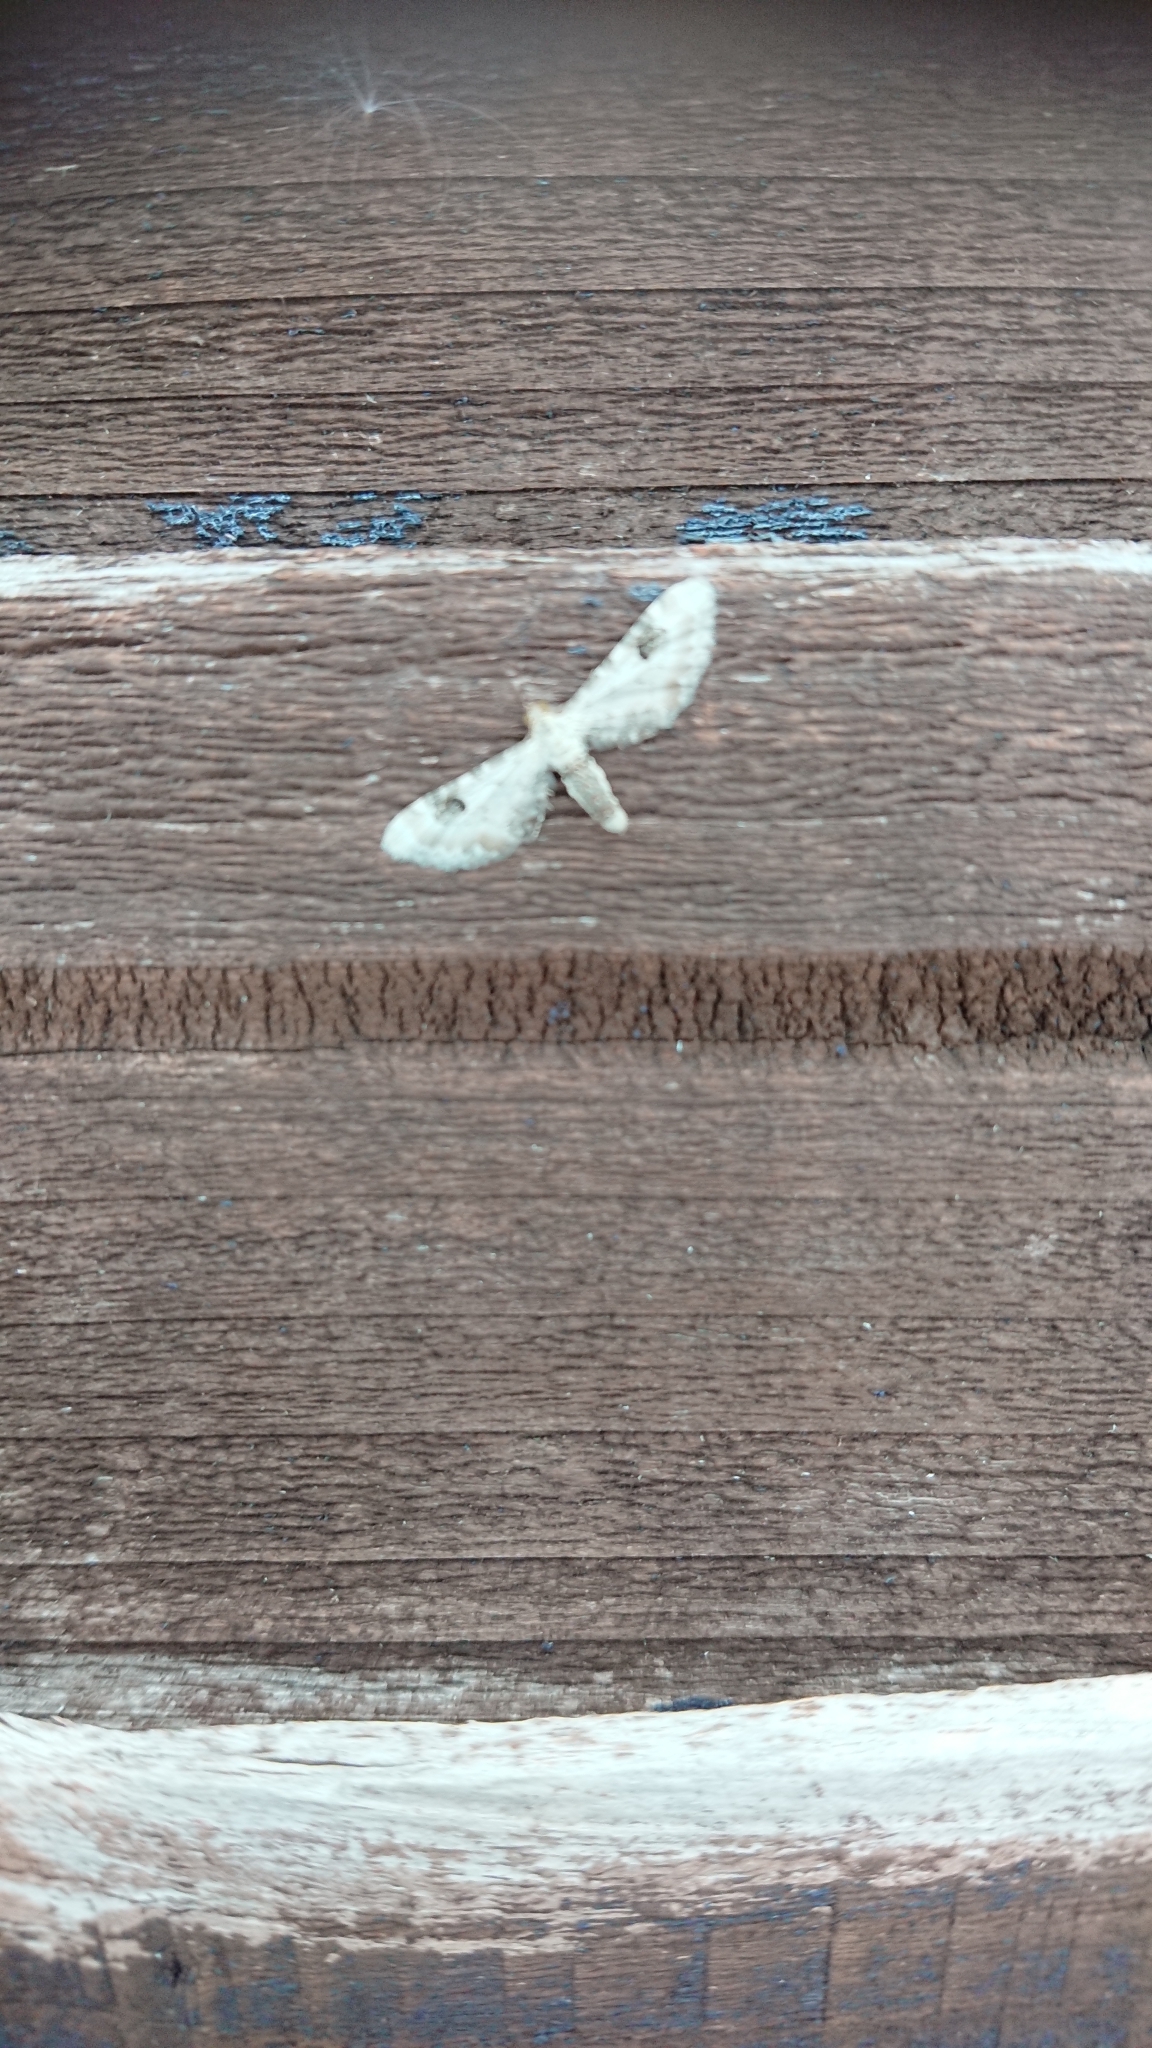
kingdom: Animalia
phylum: Arthropoda
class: Insecta
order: Lepidoptera
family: Geometridae
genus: Eupithecia
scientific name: Eupithecia centaureata
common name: Lime-speck pug
